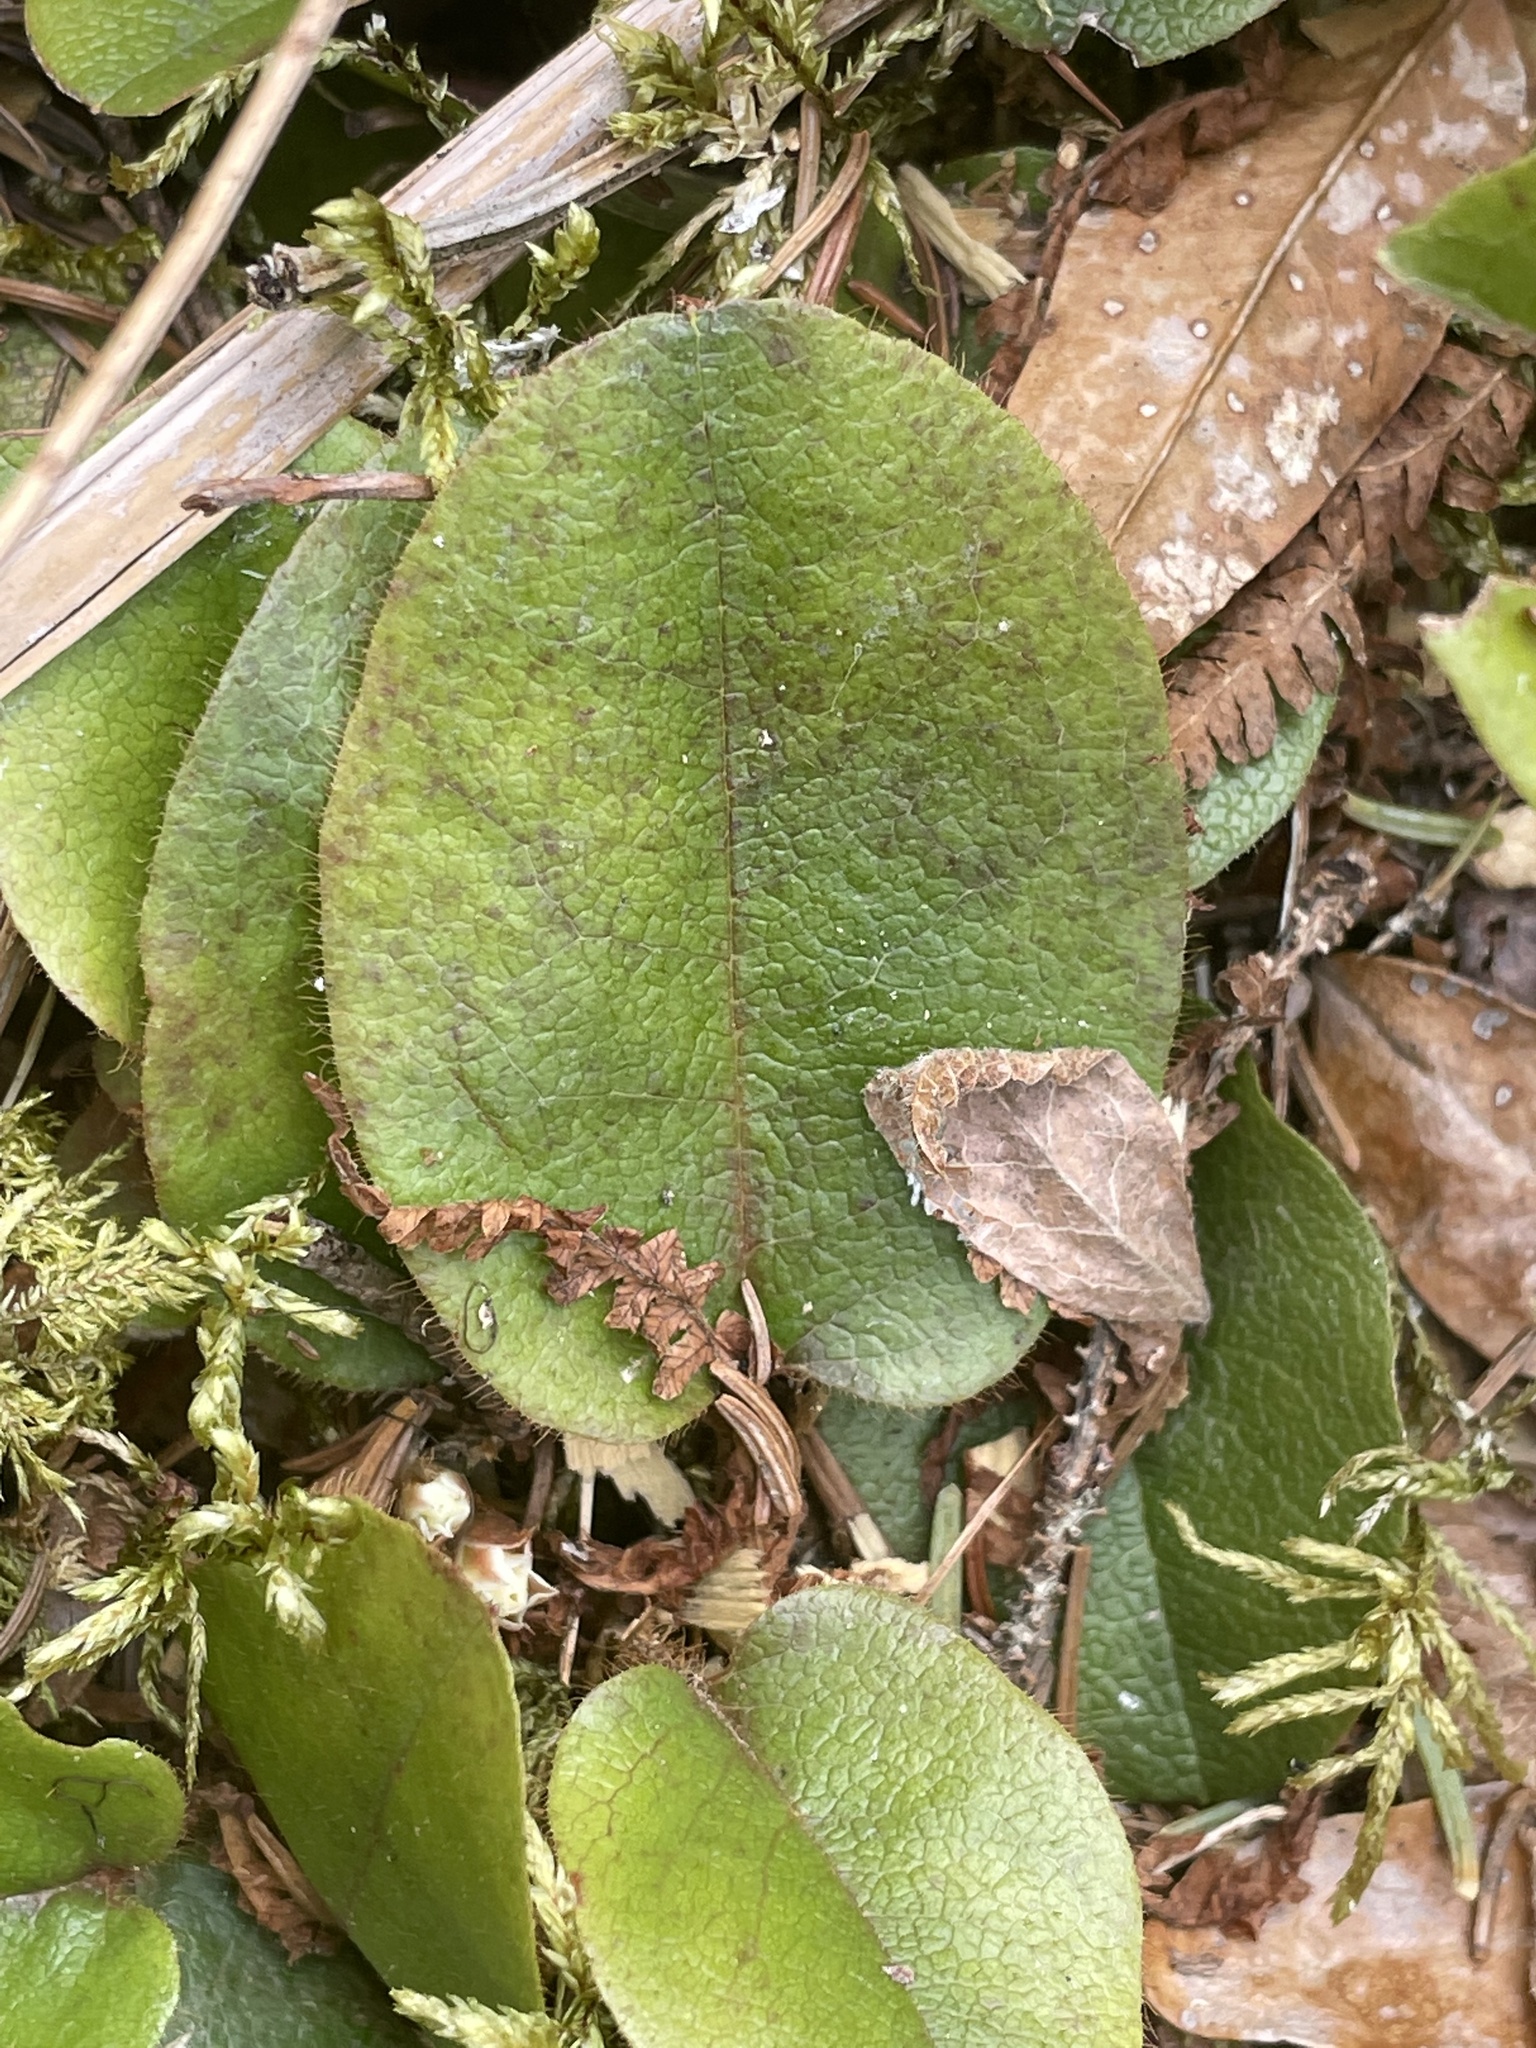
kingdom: Plantae
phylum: Tracheophyta
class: Magnoliopsida
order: Ericales
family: Ericaceae
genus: Epigaea
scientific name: Epigaea repens
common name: Gravelroot
